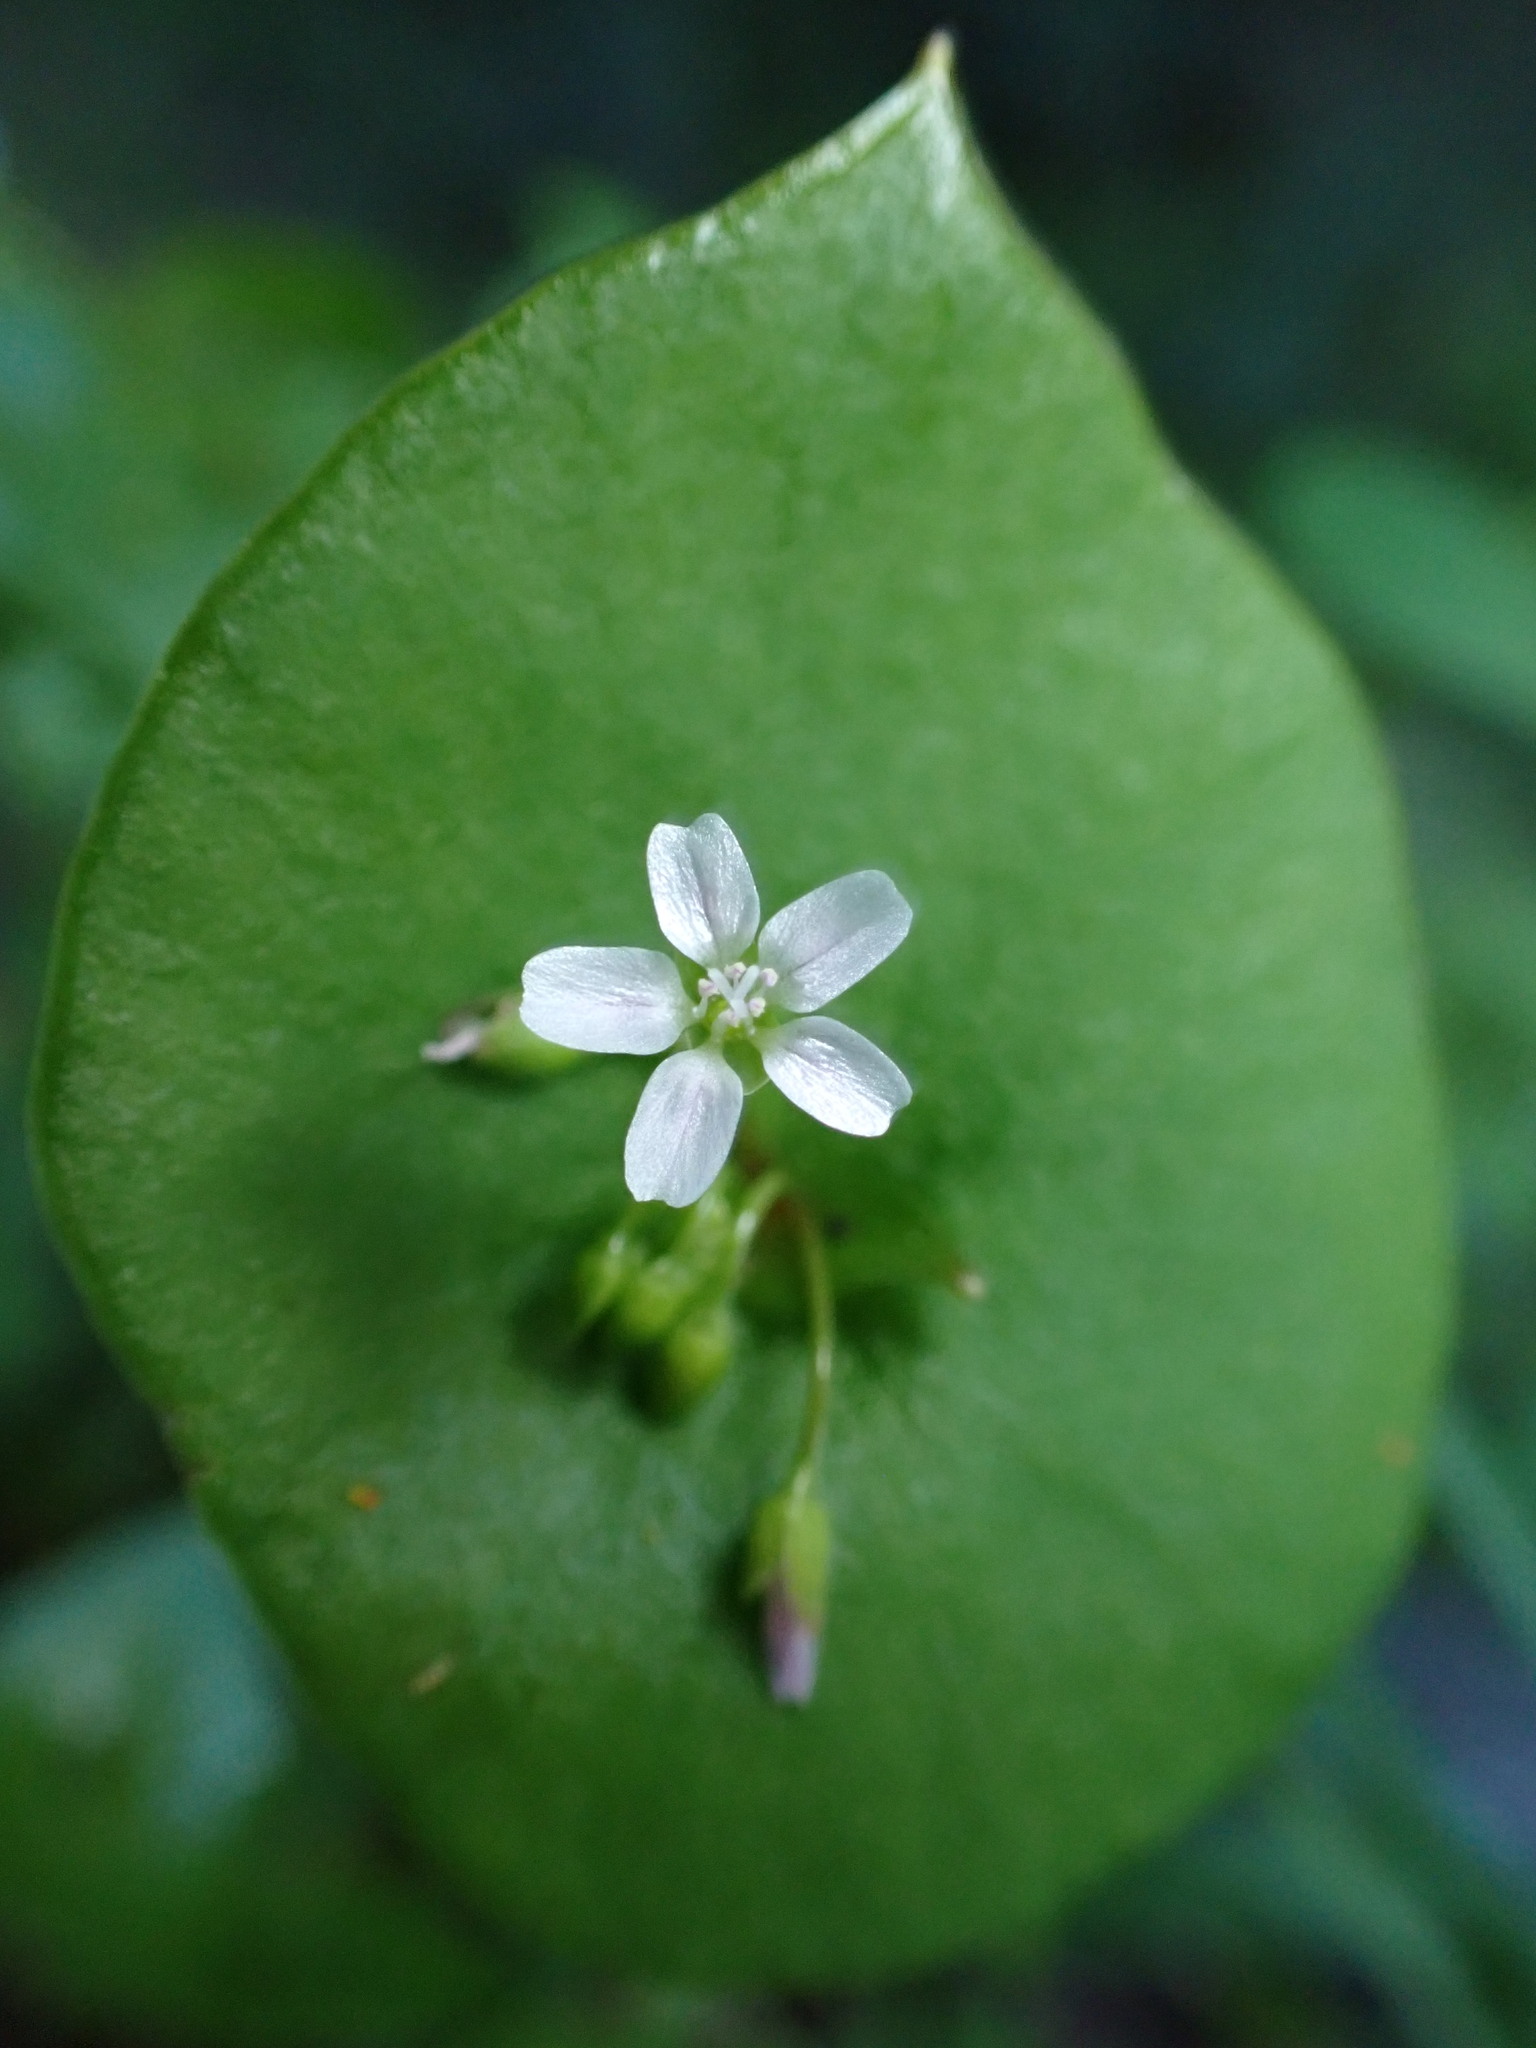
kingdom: Plantae
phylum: Tracheophyta
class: Magnoliopsida
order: Caryophyllales
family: Montiaceae
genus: Claytonia
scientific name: Claytonia perfoliata
